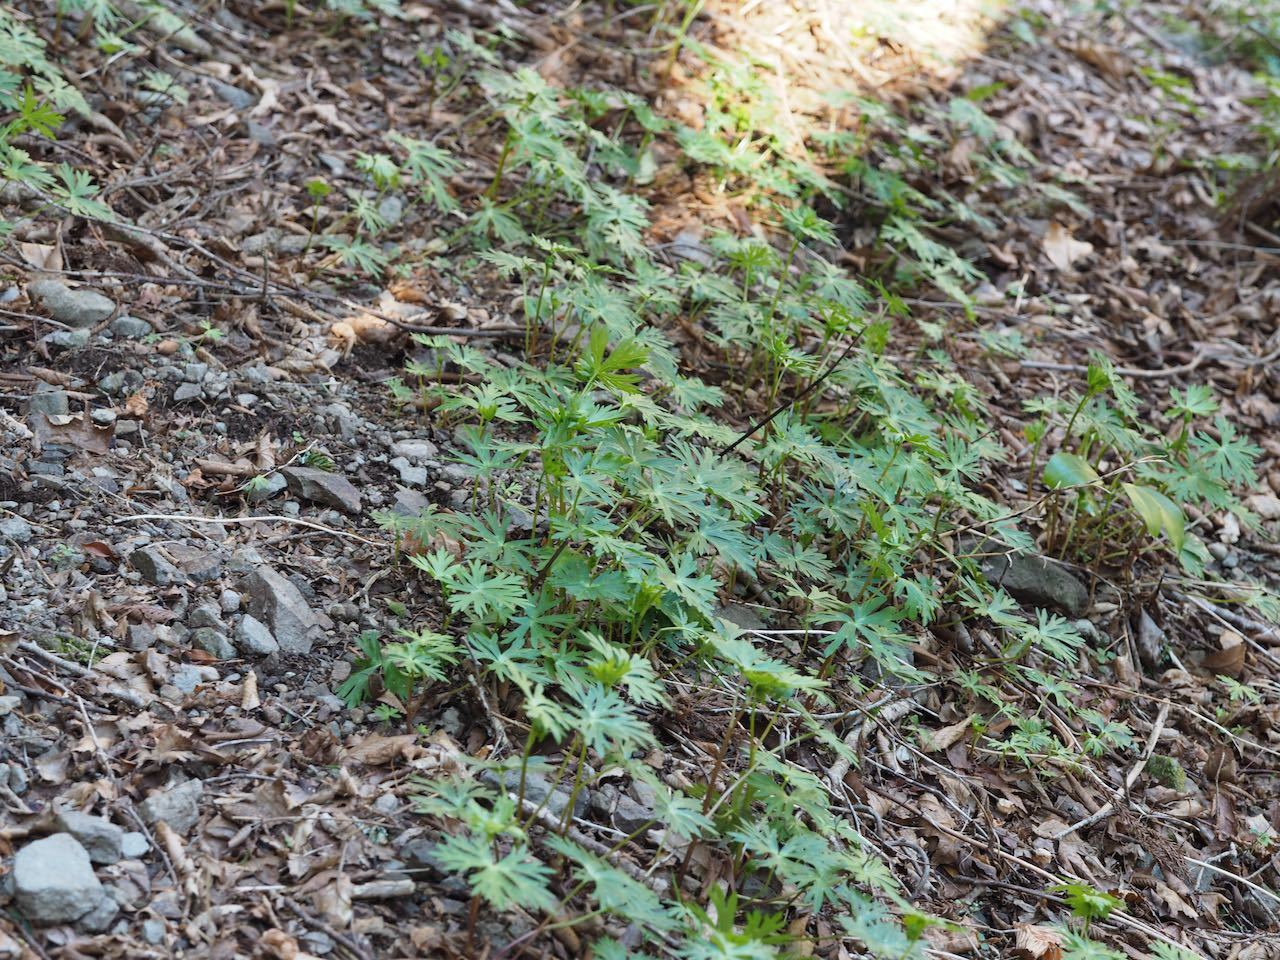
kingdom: Plantae
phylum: Tracheophyta
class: Magnoliopsida
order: Ranunculales
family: Ranunculaceae
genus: Aconitum
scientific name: Aconitum
